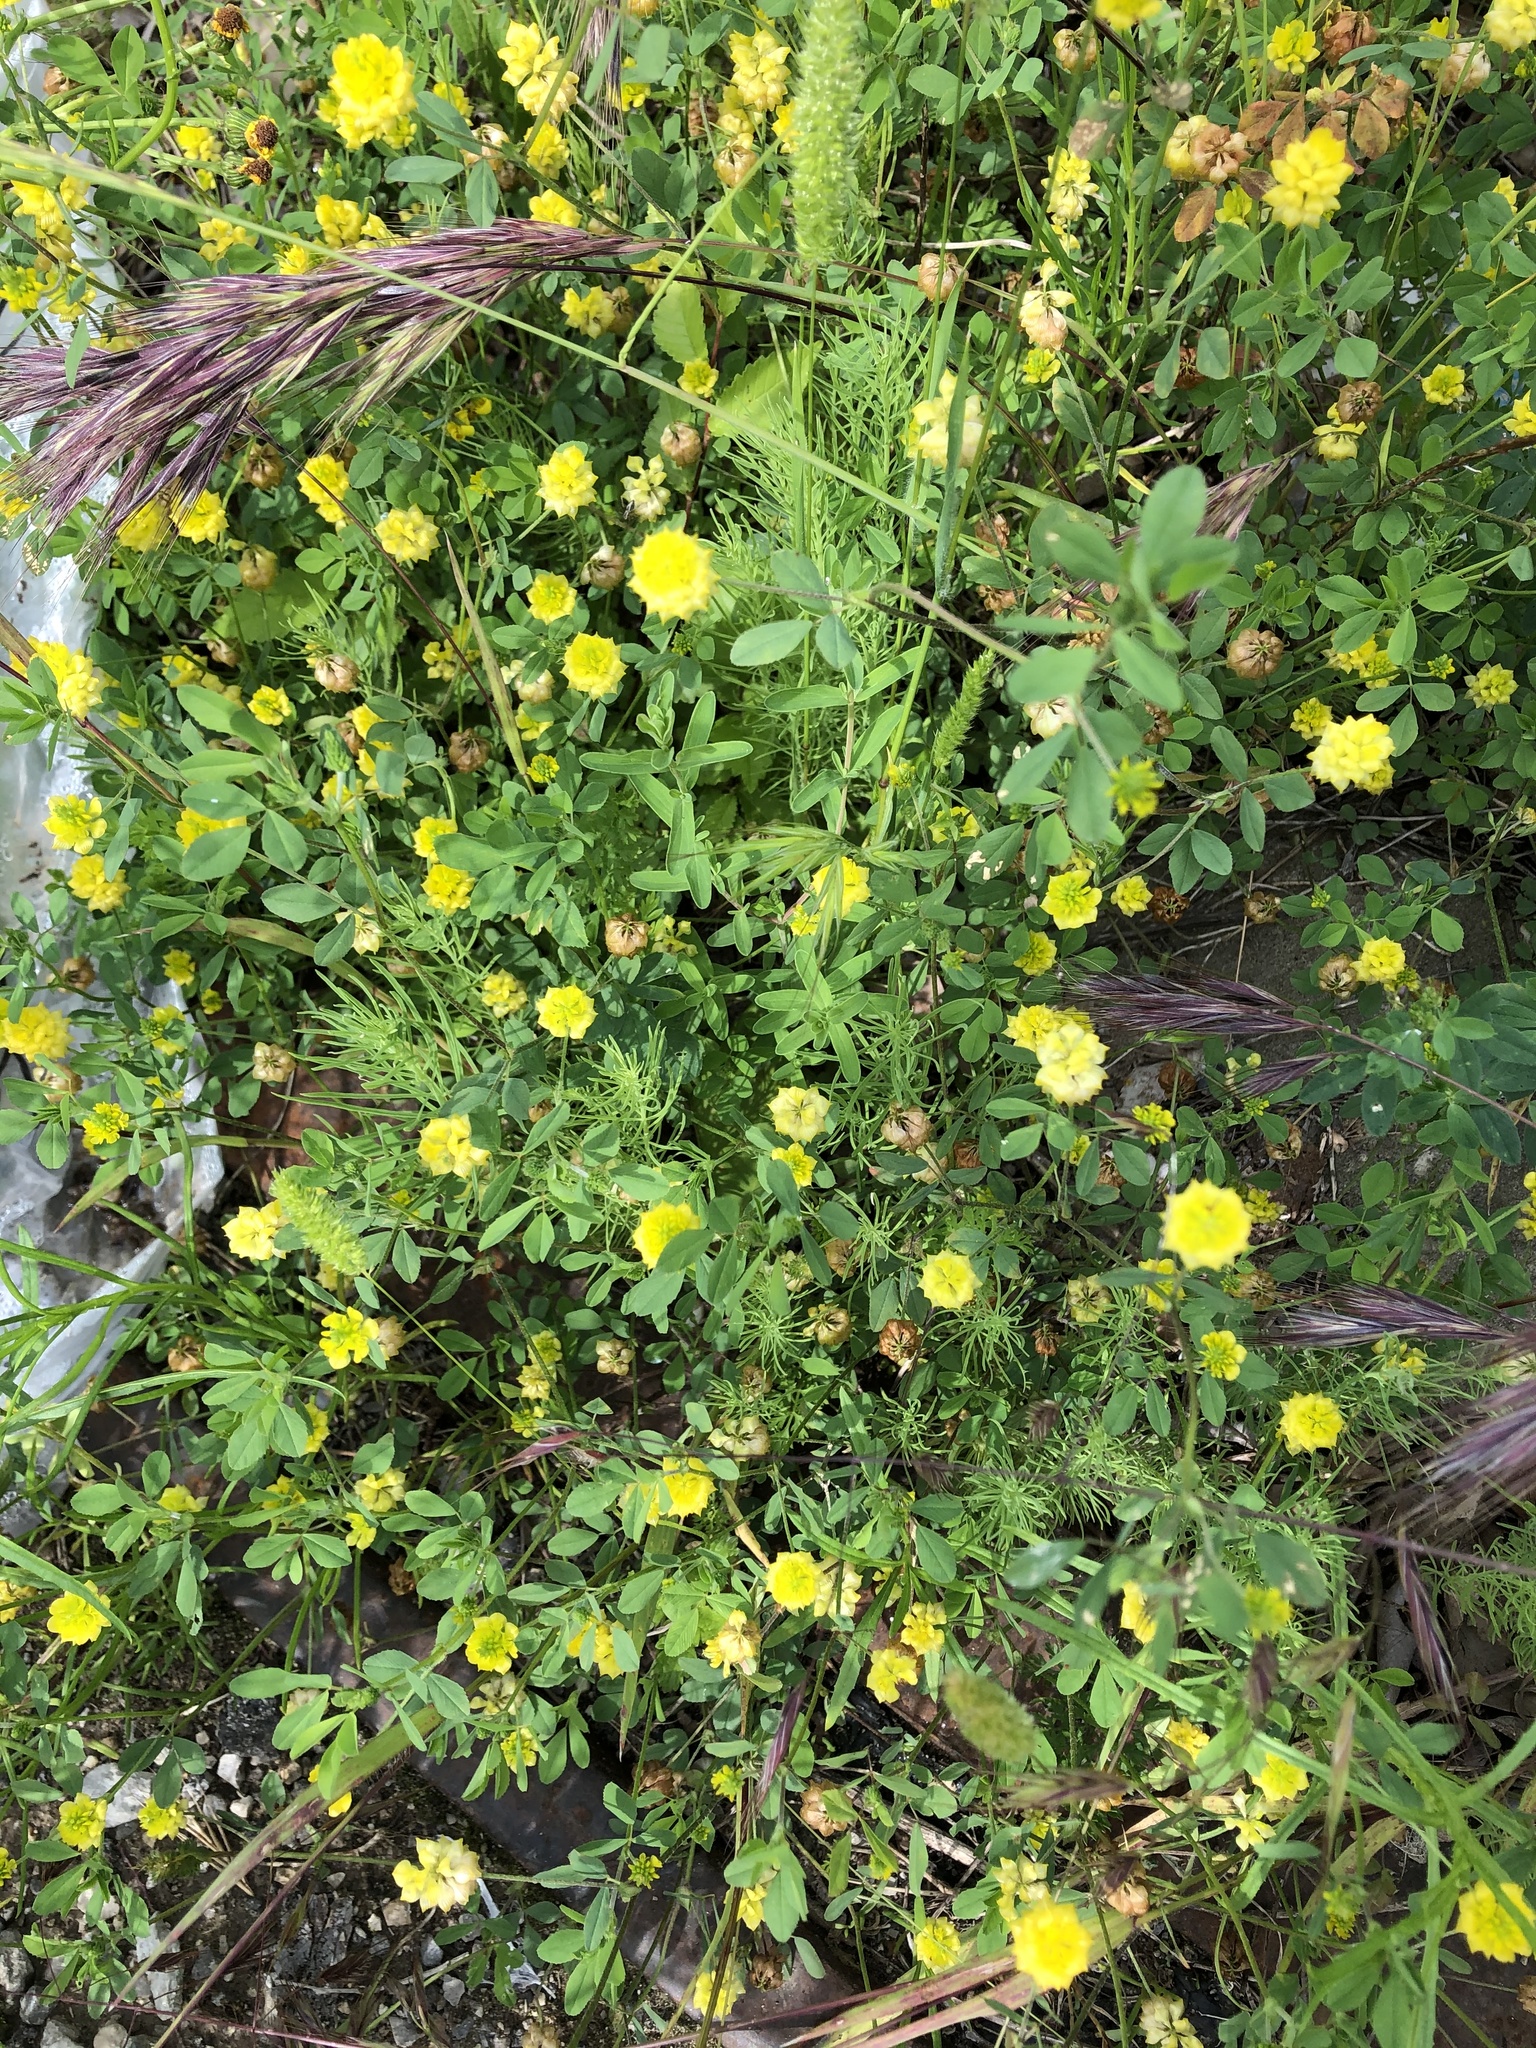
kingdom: Plantae
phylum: Tracheophyta
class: Magnoliopsida
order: Fabales
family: Fabaceae
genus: Trifolium
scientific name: Trifolium campestre
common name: Field clover
